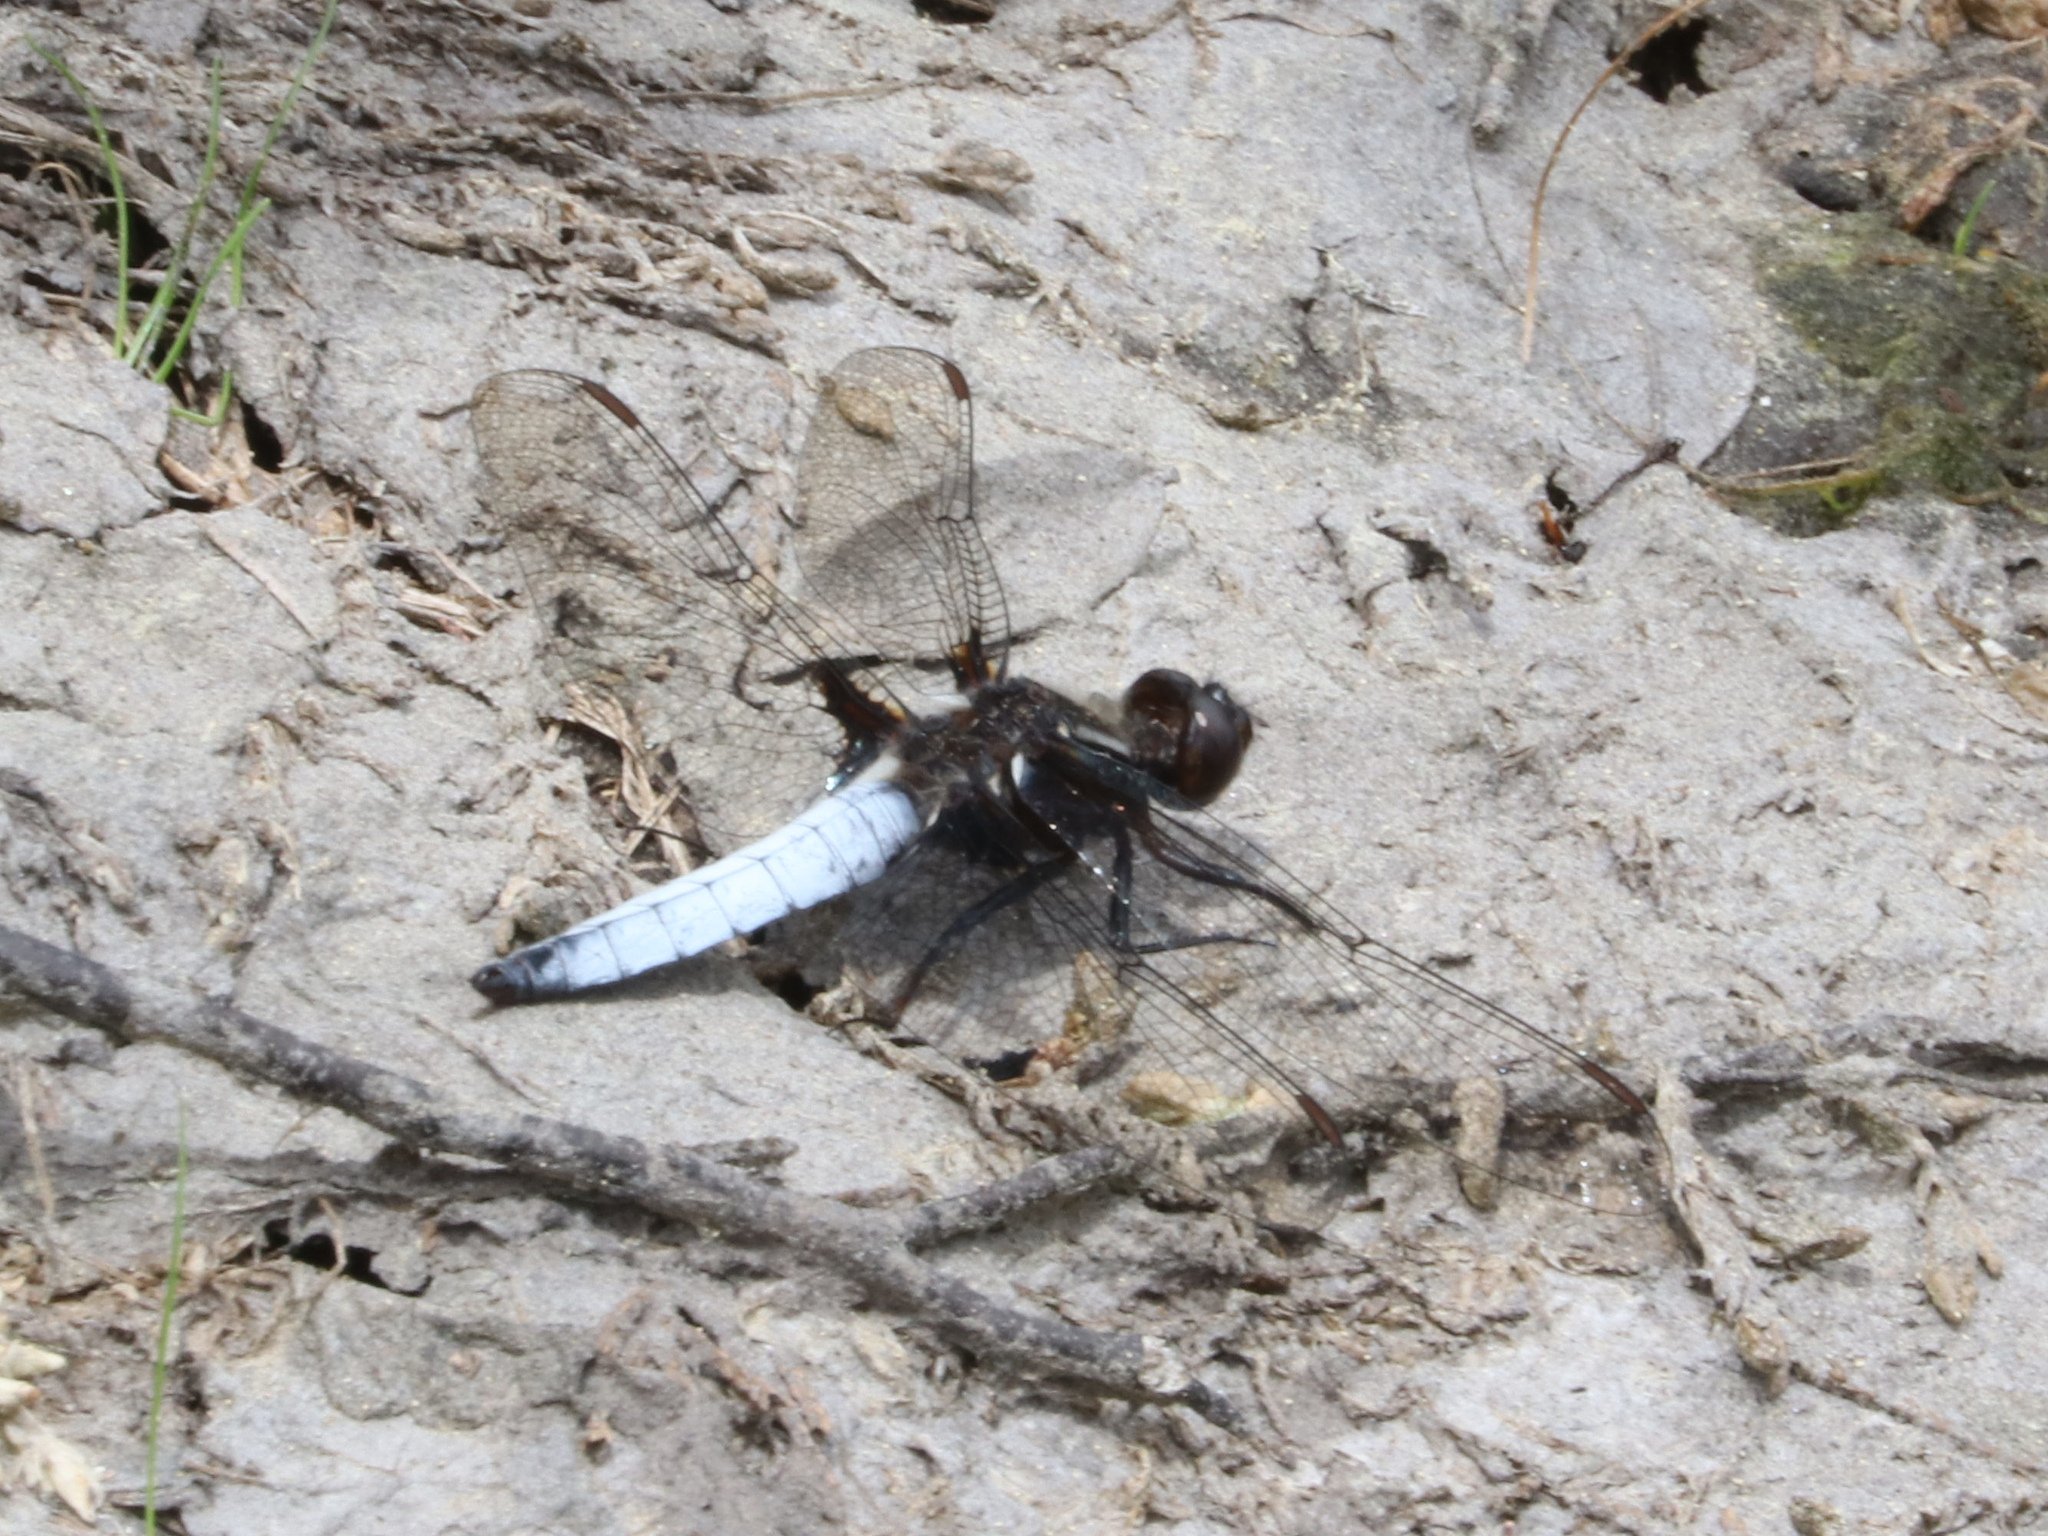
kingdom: Animalia
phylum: Arthropoda
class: Insecta
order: Odonata
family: Libellulidae
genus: Ladona
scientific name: Ladona exusta
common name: Libellule embrasée
